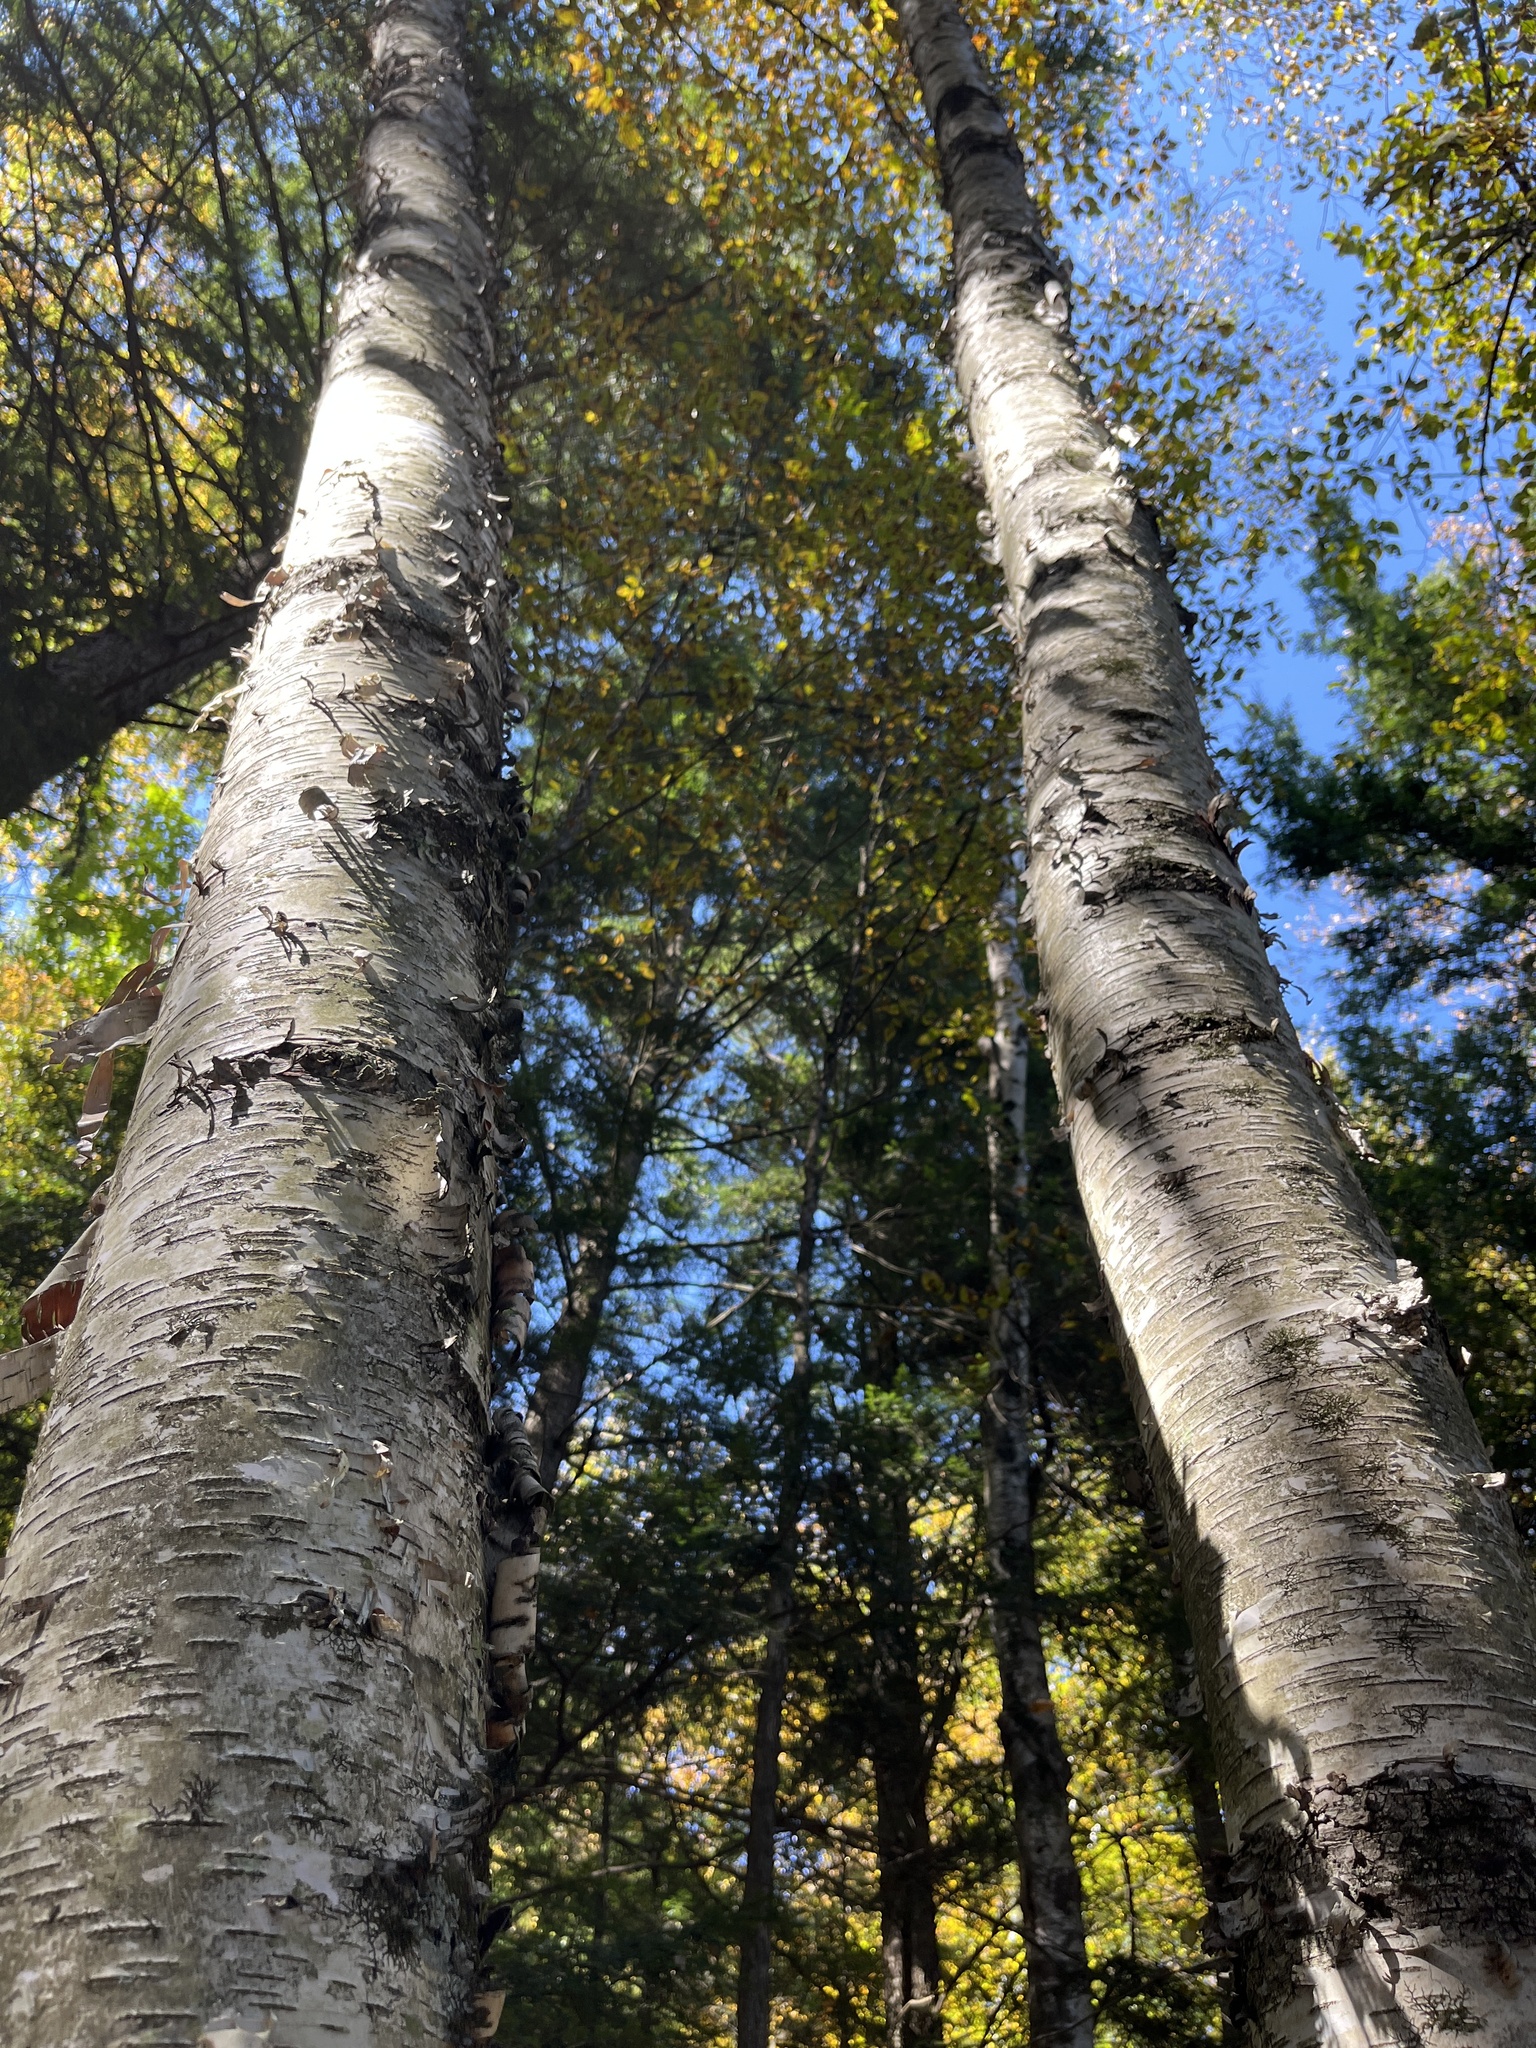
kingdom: Plantae
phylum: Tracheophyta
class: Magnoliopsida
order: Fagales
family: Betulaceae
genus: Betula
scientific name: Betula papyrifera
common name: Paper birch
